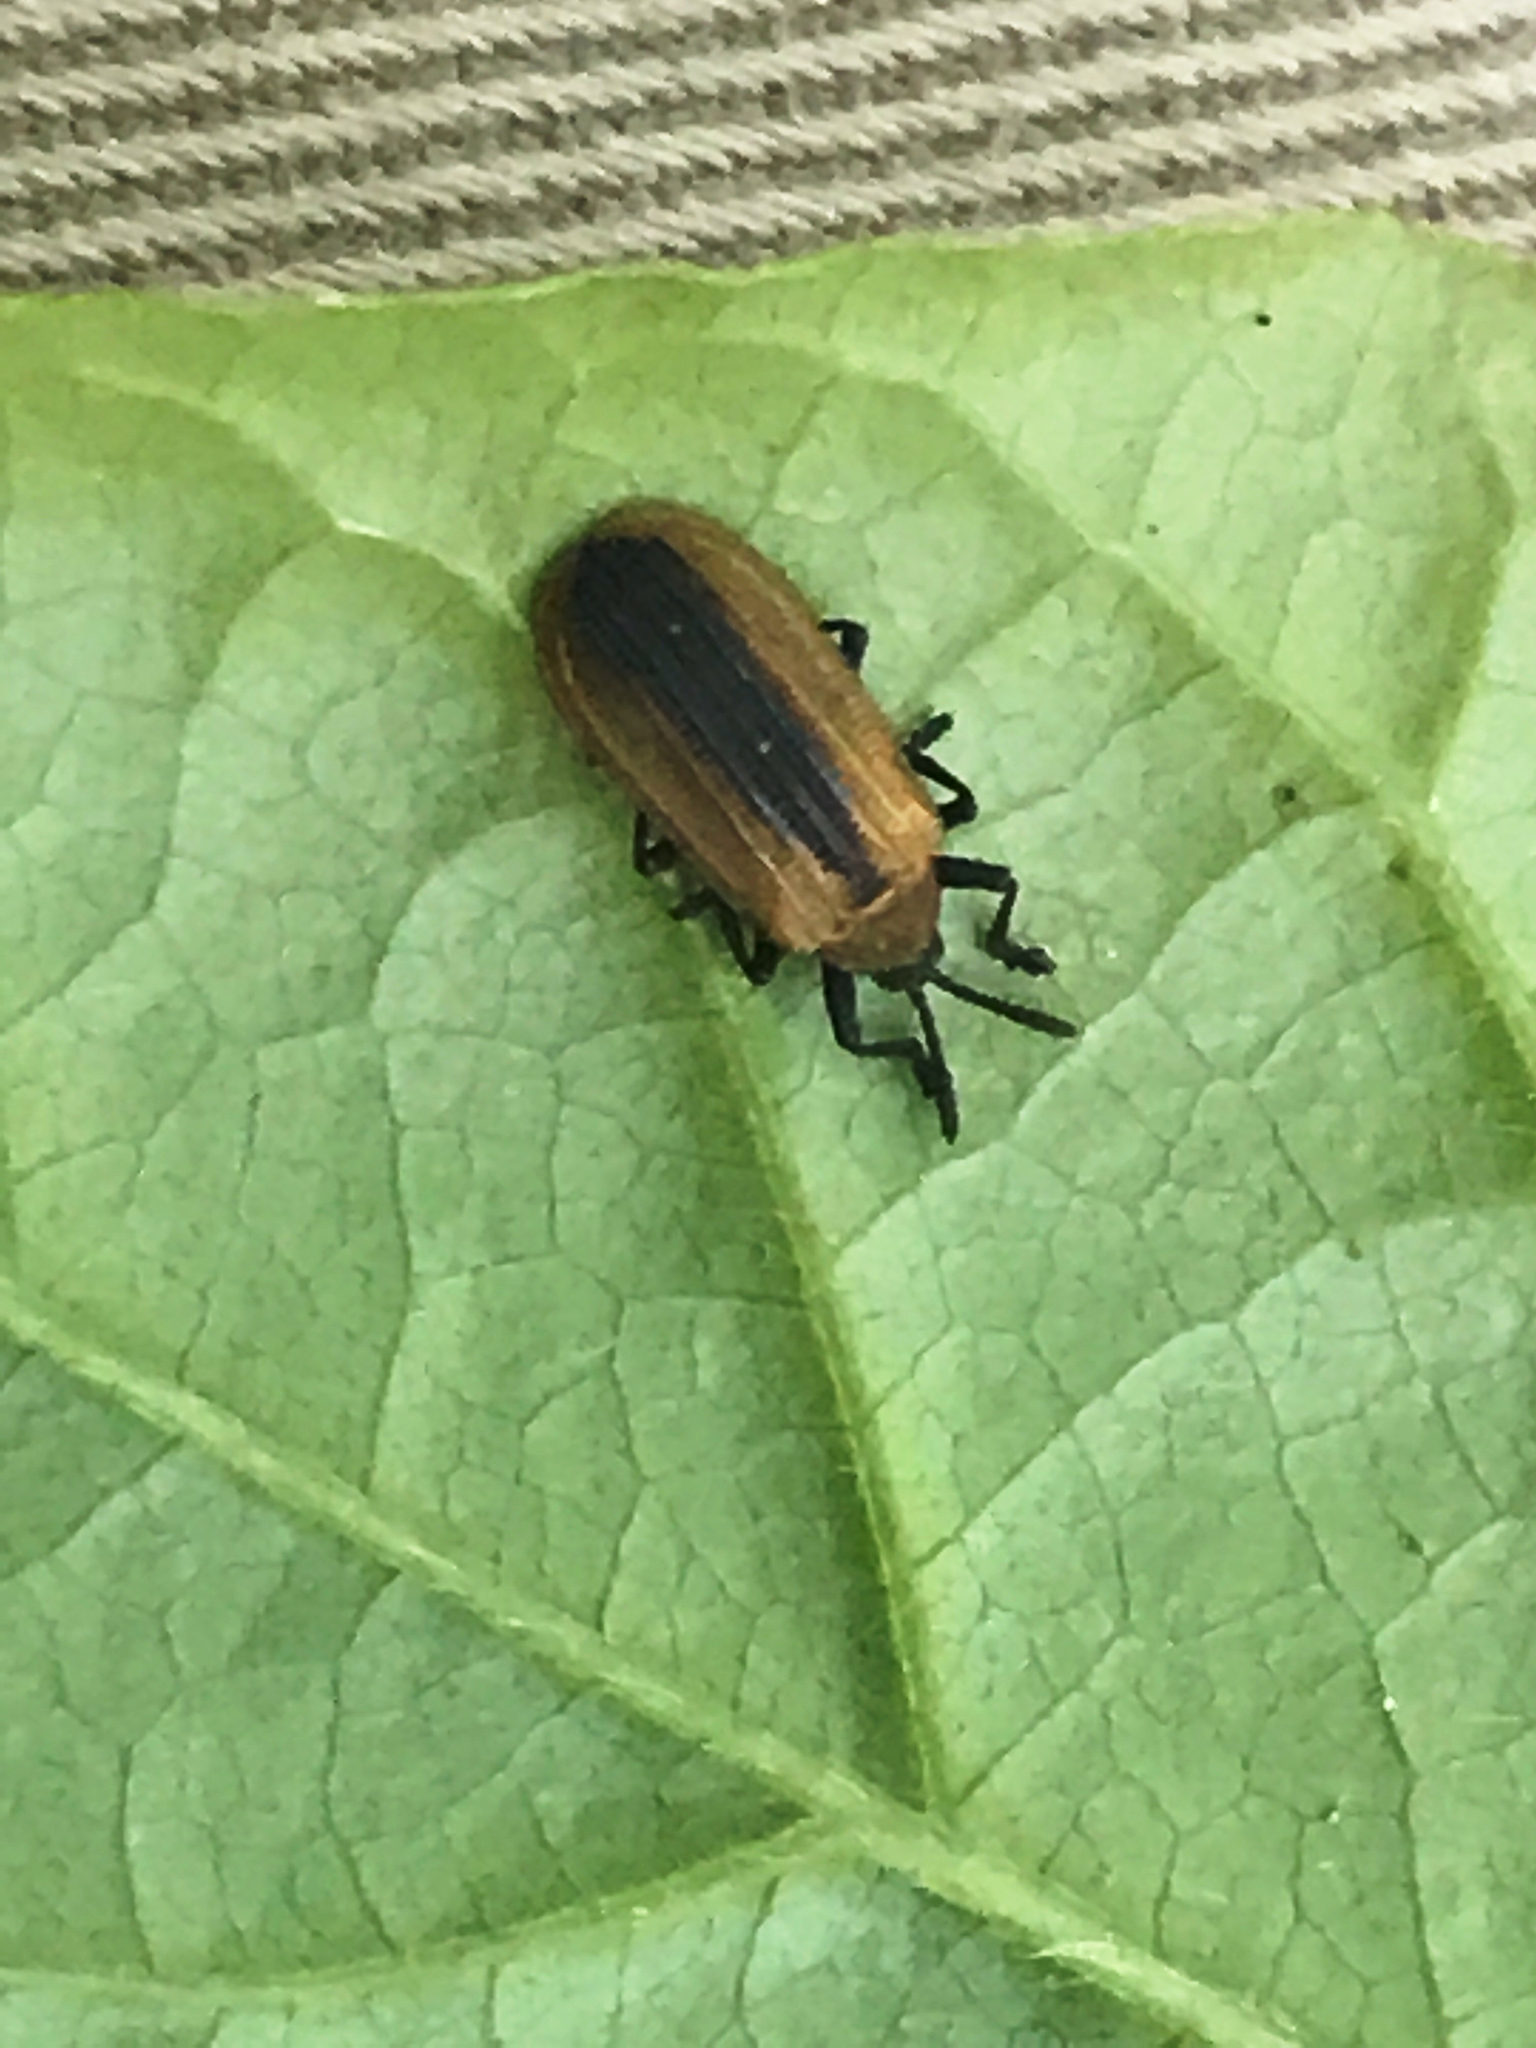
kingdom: Animalia
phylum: Arthropoda
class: Insecta
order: Coleoptera
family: Chrysomelidae
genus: Odontota
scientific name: Odontota dorsalis
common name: Locust leaf-miner beetle
